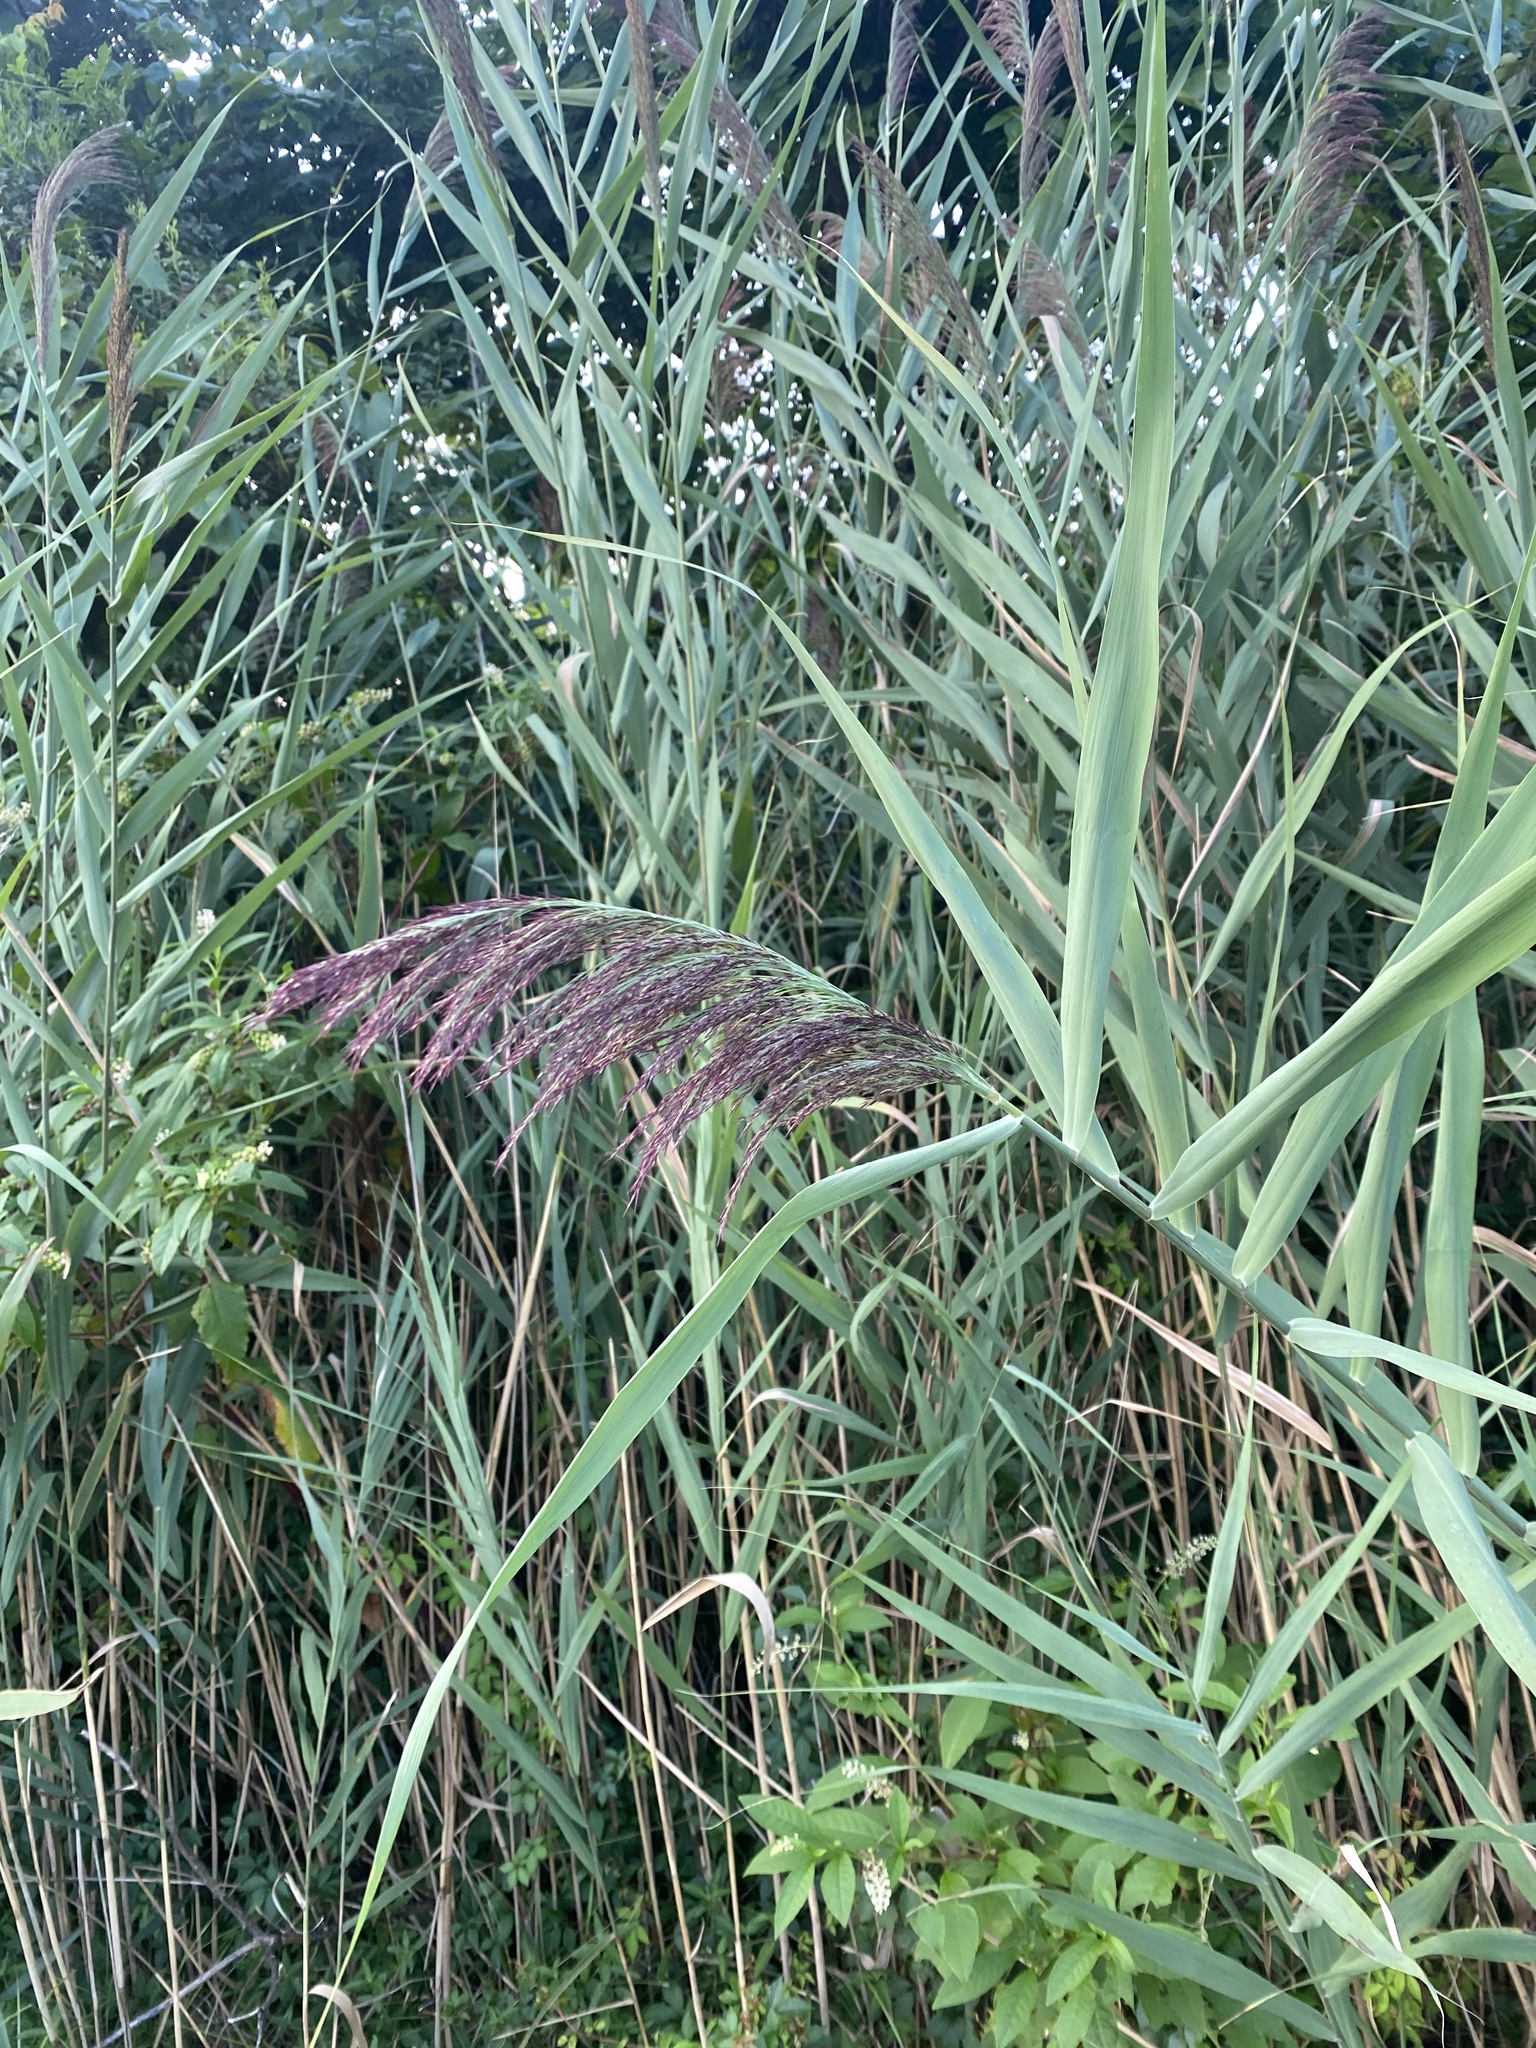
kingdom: Plantae
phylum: Tracheophyta
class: Liliopsida
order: Poales
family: Poaceae
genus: Phragmites
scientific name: Phragmites australis
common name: Common reed
